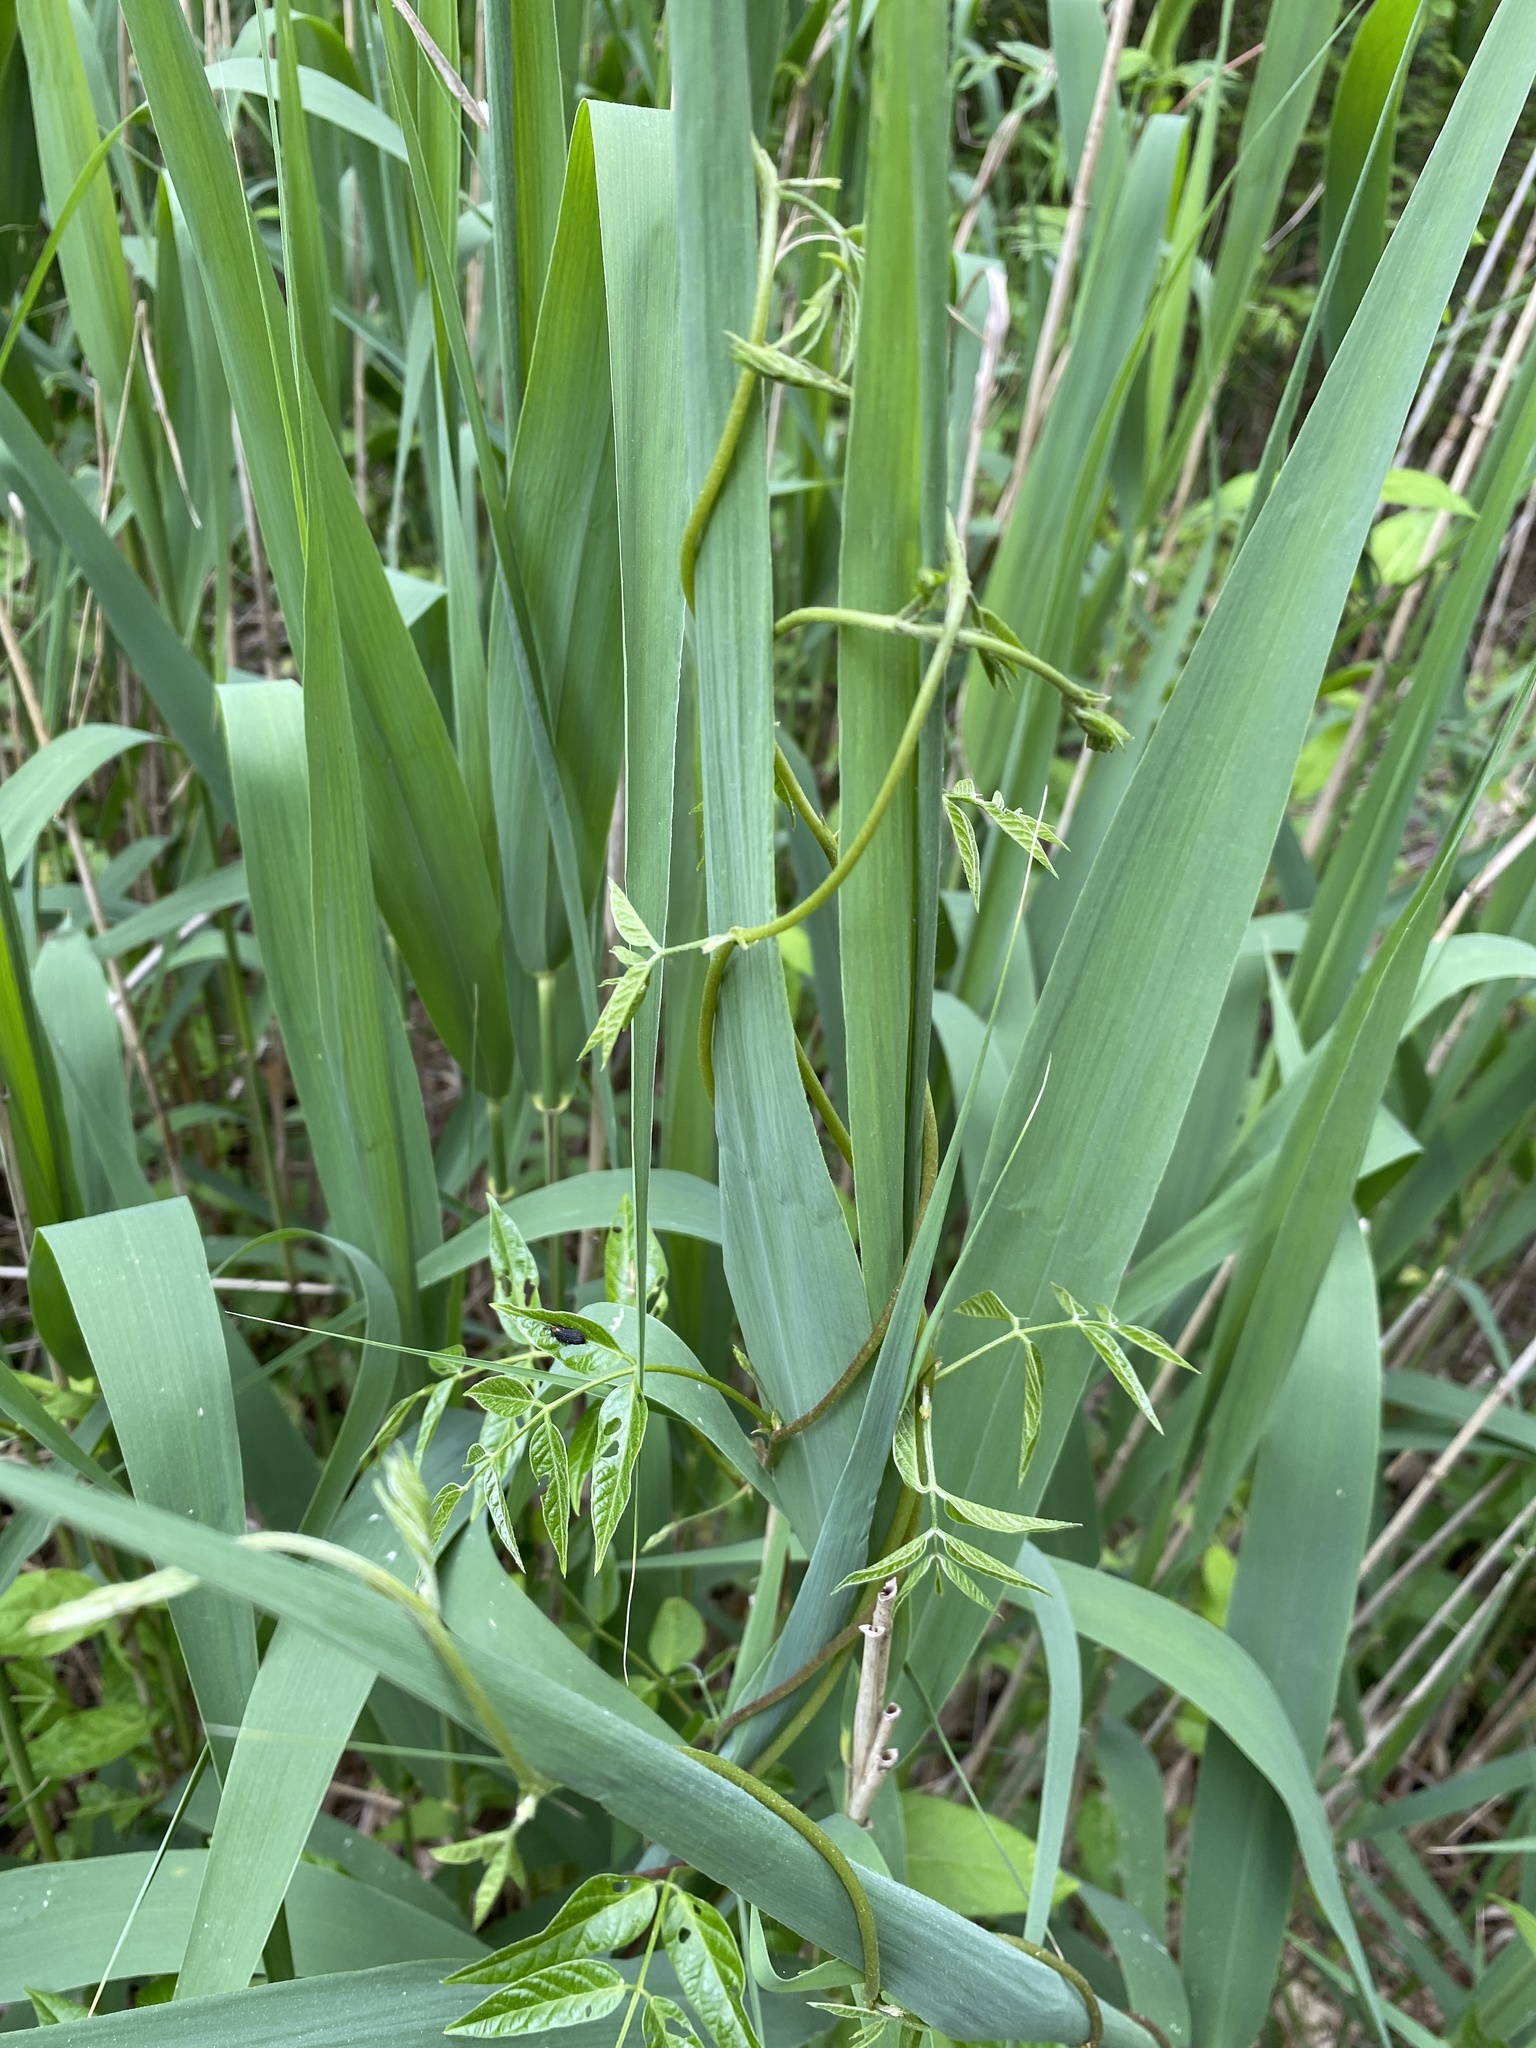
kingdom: Plantae
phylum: Tracheophyta
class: Magnoliopsida
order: Fabales
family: Fabaceae
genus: Apios
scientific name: Apios americana
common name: American potato-bean
